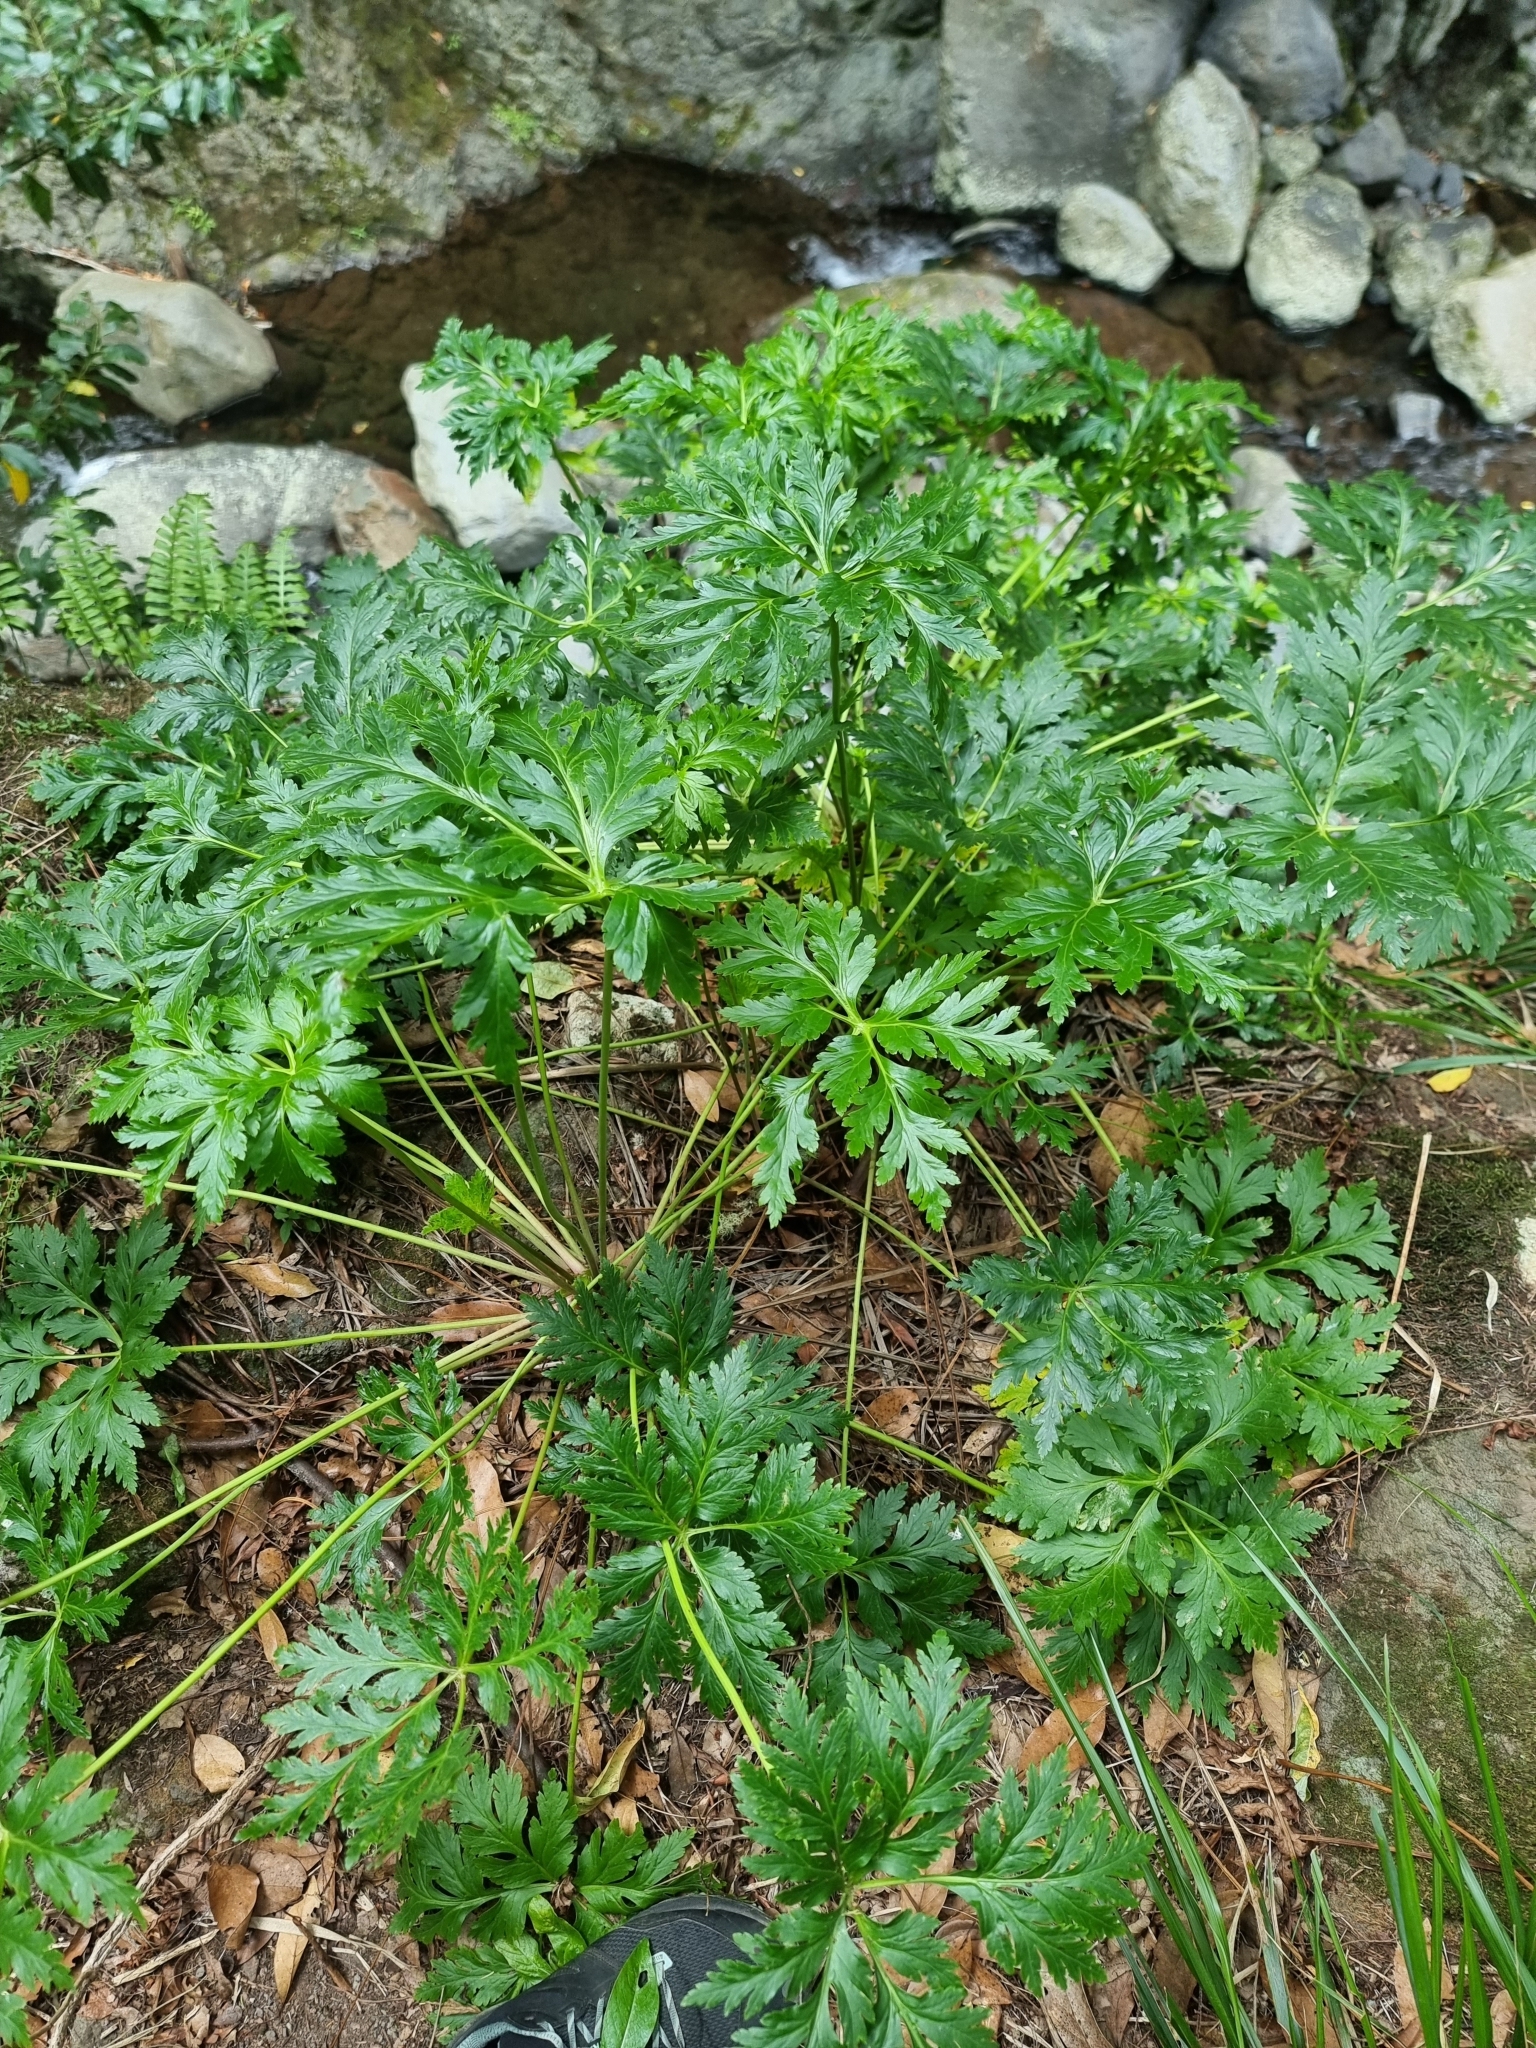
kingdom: Plantae
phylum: Tracheophyta
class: Magnoliopsida
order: Geraniales
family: Geraniaceae
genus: Geranium
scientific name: Geranium palmatum
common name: Canary island geranium
